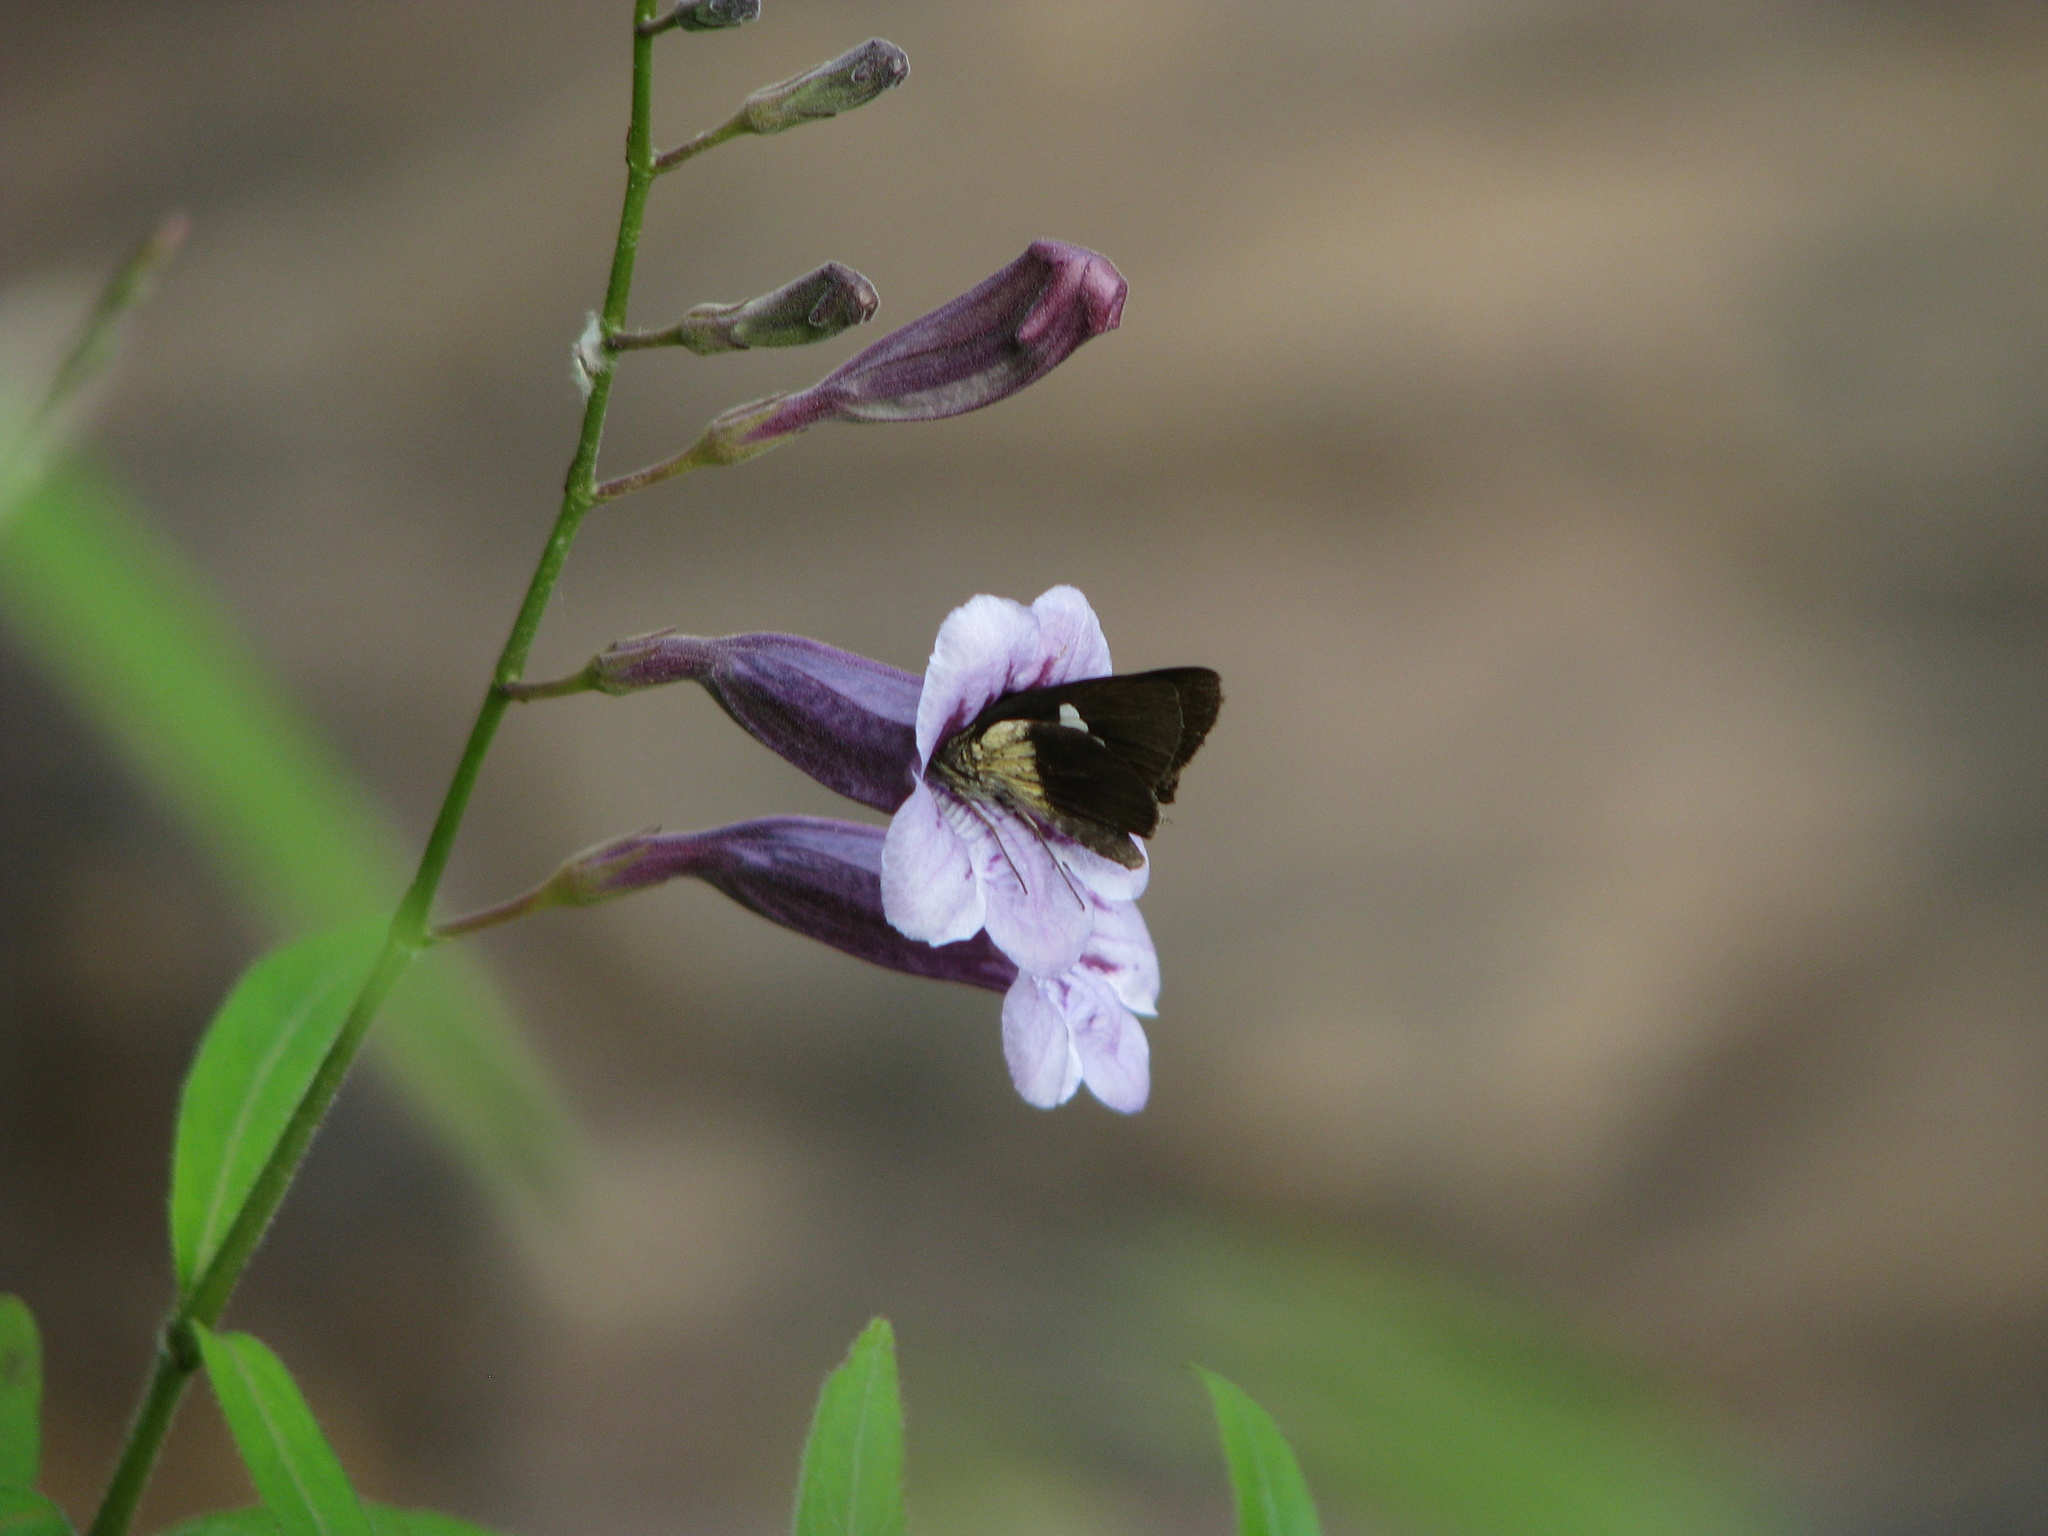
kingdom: Animalia
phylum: Arthropoda
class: Insecta
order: Lepidoptera
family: Hesperiidae
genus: Quedara
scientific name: Quedara basiflava
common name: Golden flitter
